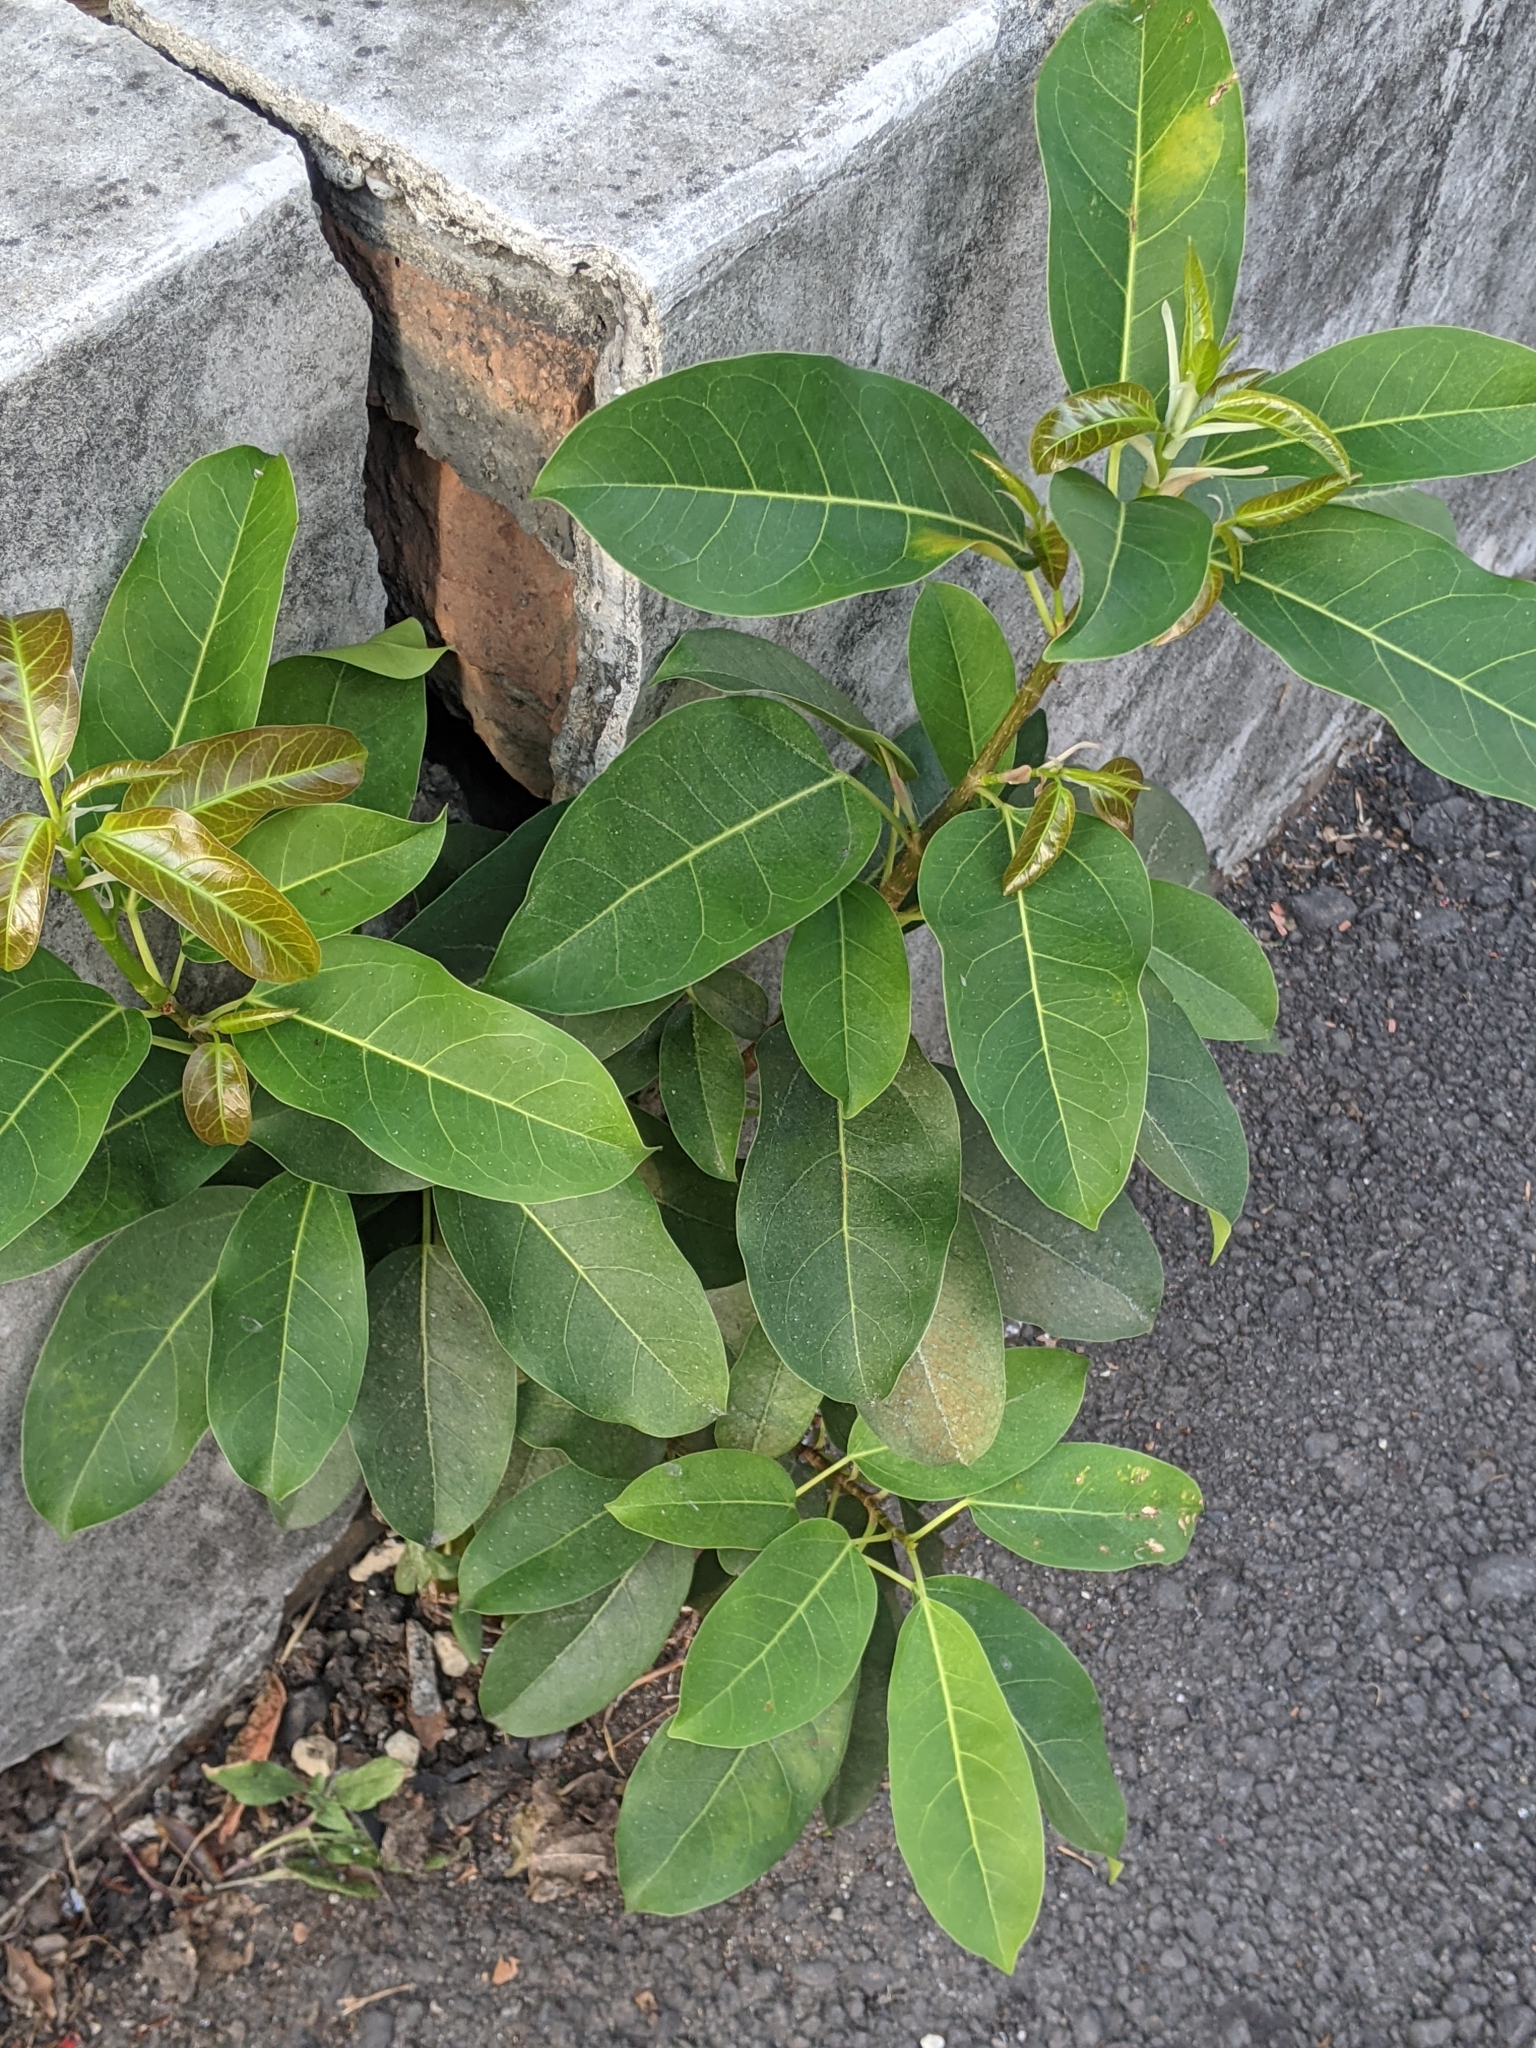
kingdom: Plantae
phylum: Tracheophyta
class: Magnoliopsida
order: Rosales
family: Moraceae
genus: Ficus
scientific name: Ficus subpisocarpa
